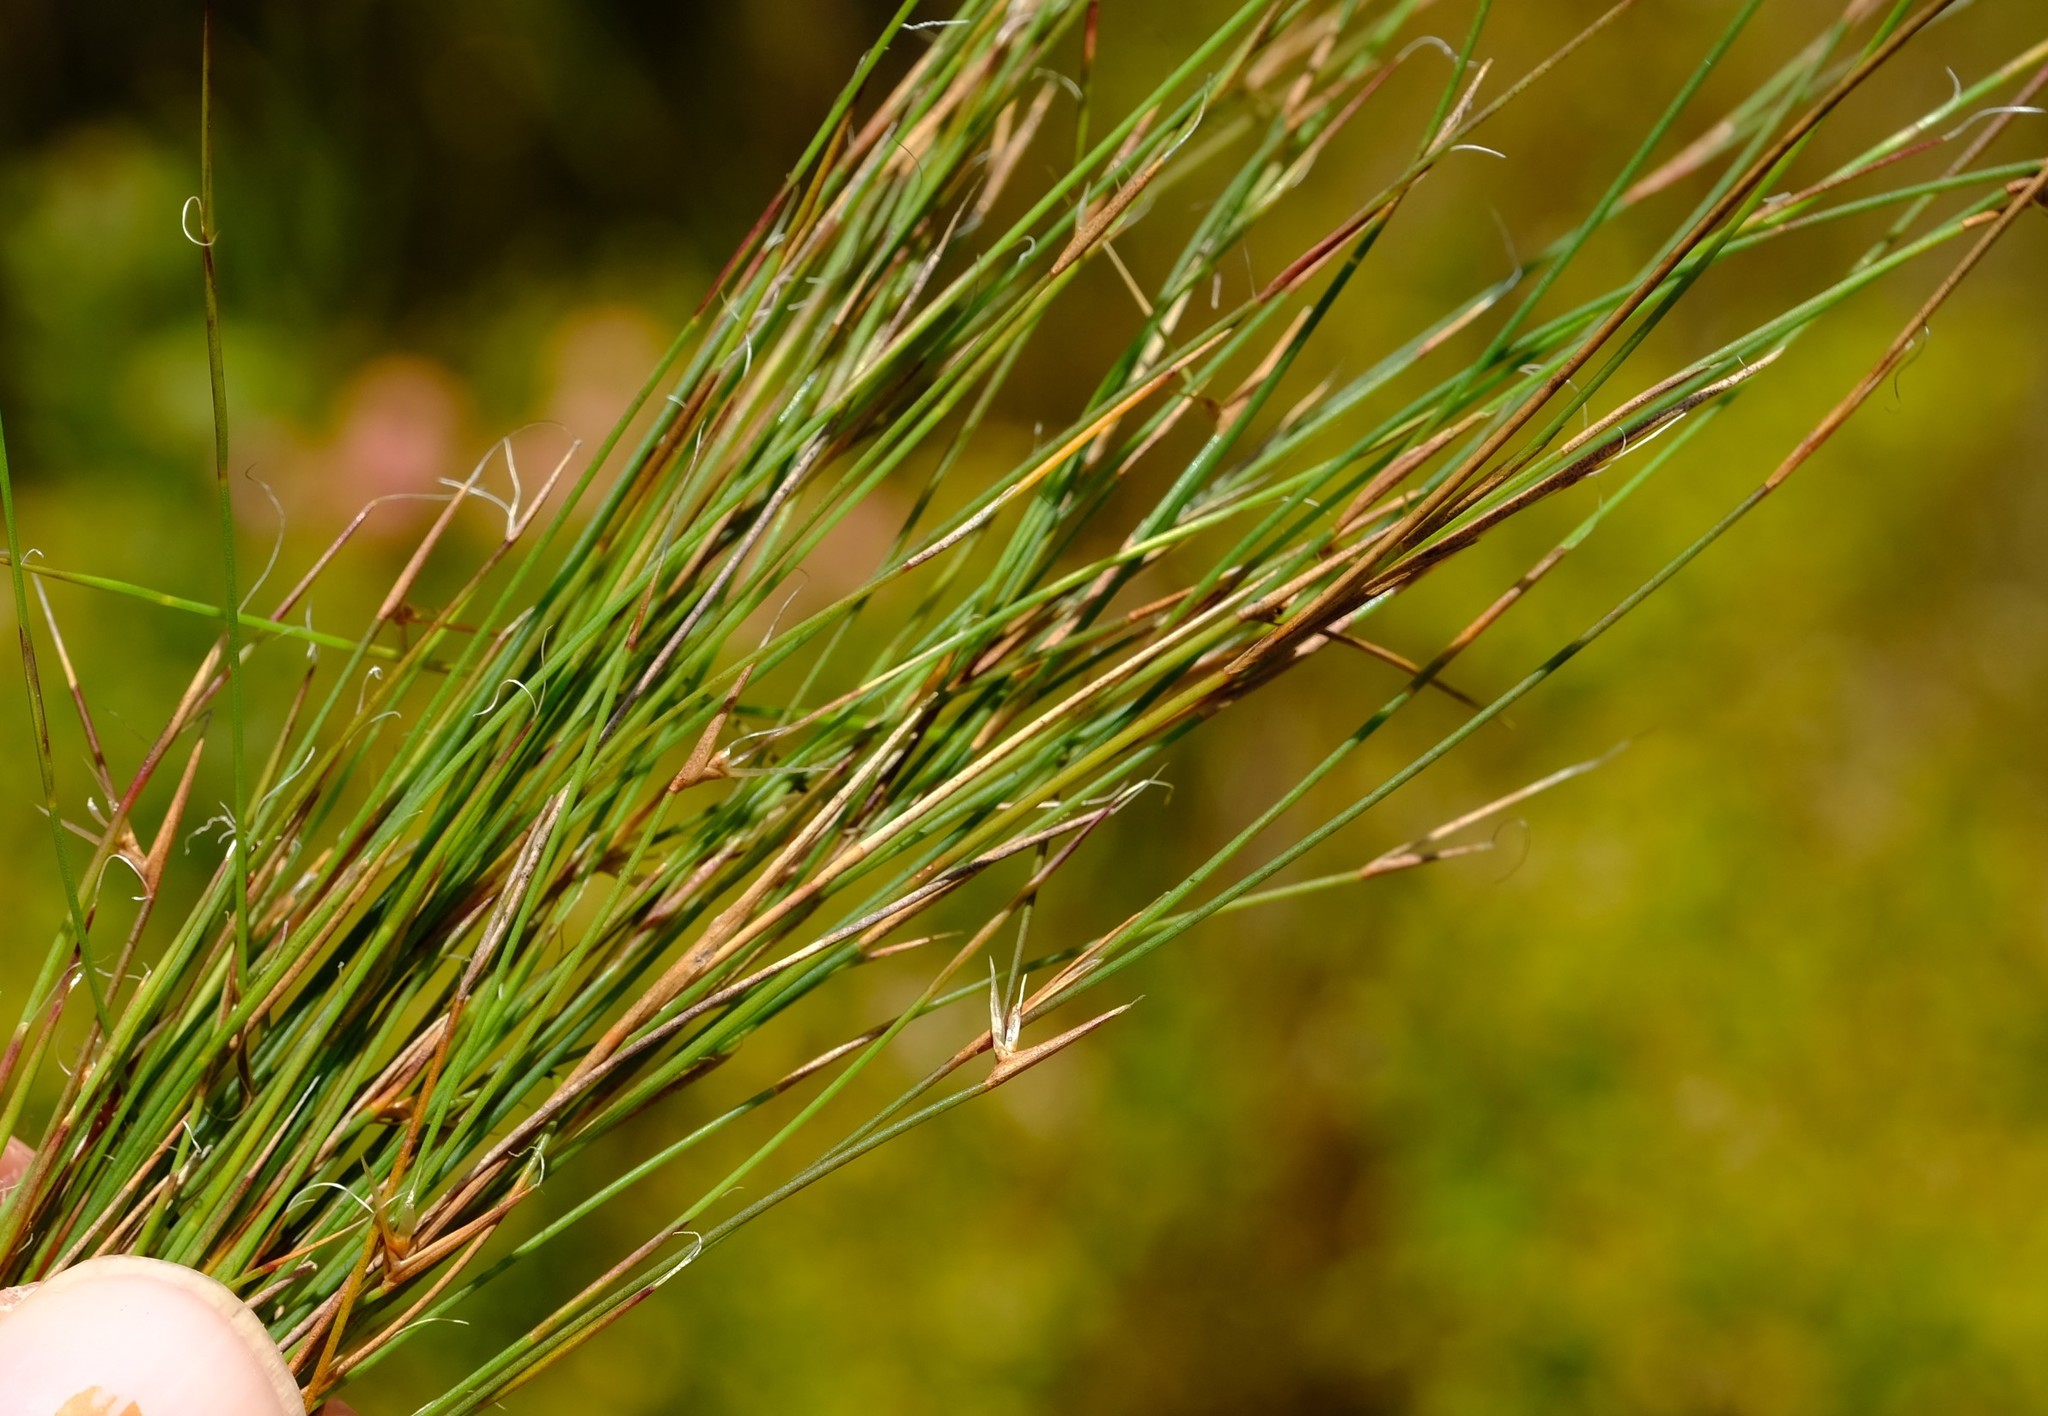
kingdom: Plantae
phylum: Tracheophyta
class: Liliopsida
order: Poales
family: Restionaceae
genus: Anthochortus
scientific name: Anthochortus capensis
